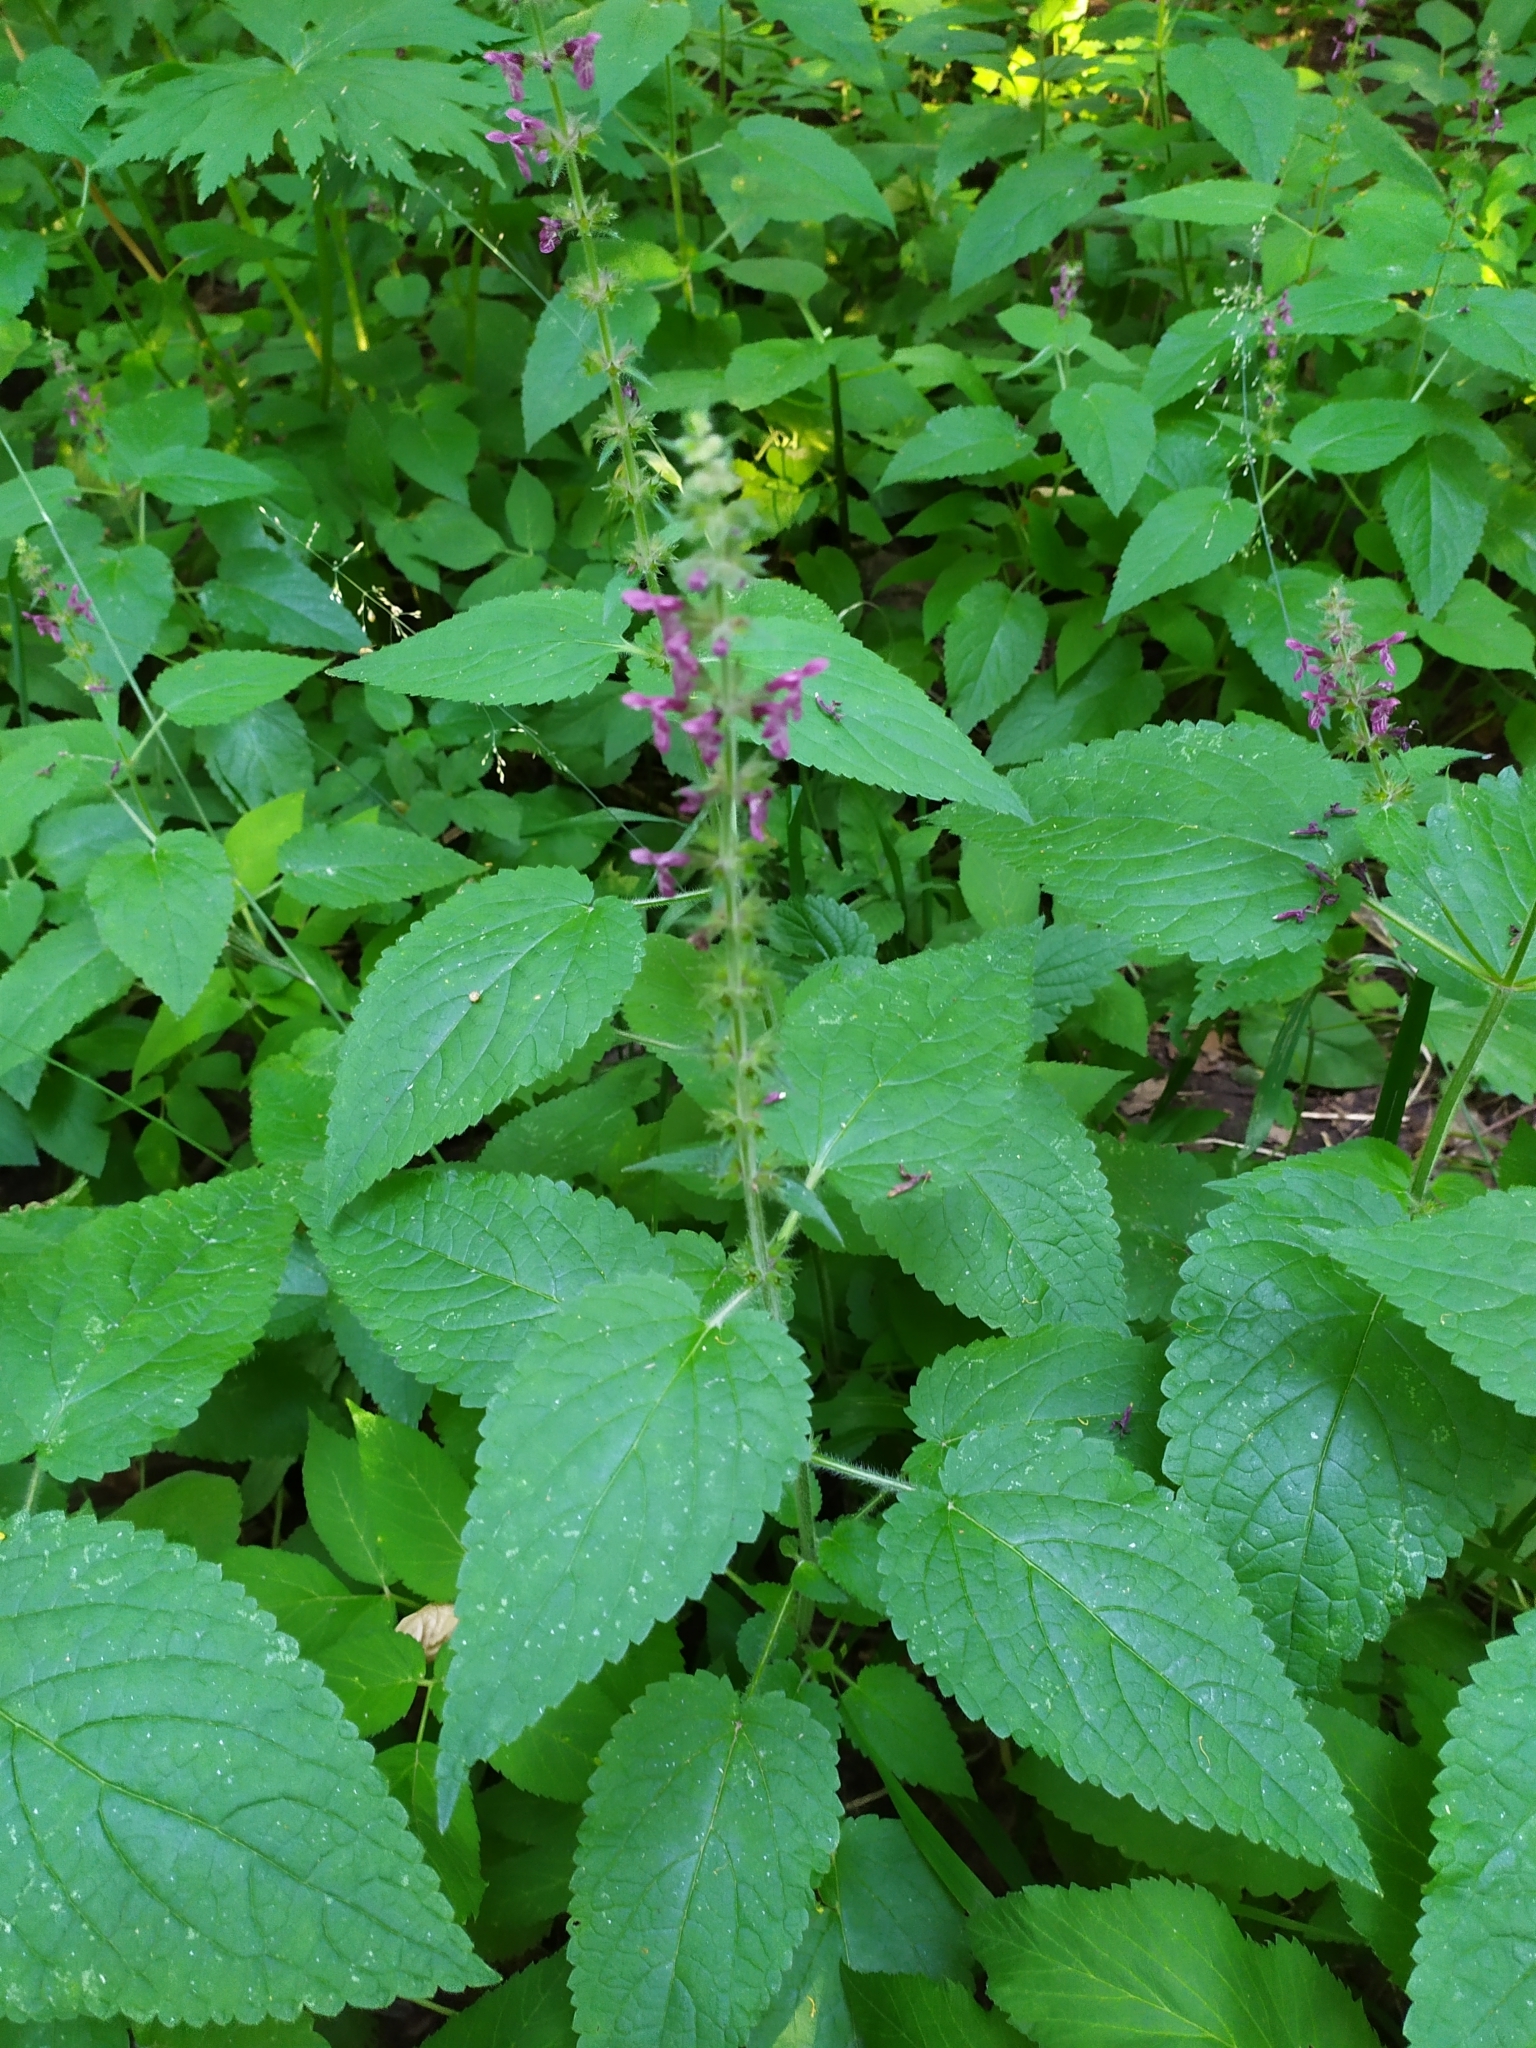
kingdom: Plantae
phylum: Tracheophyta
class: Magnoliopsida
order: Lamiales
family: Lamiaceae
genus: Stachys
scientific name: Stachys sylvatica
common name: Hedge woundwort
